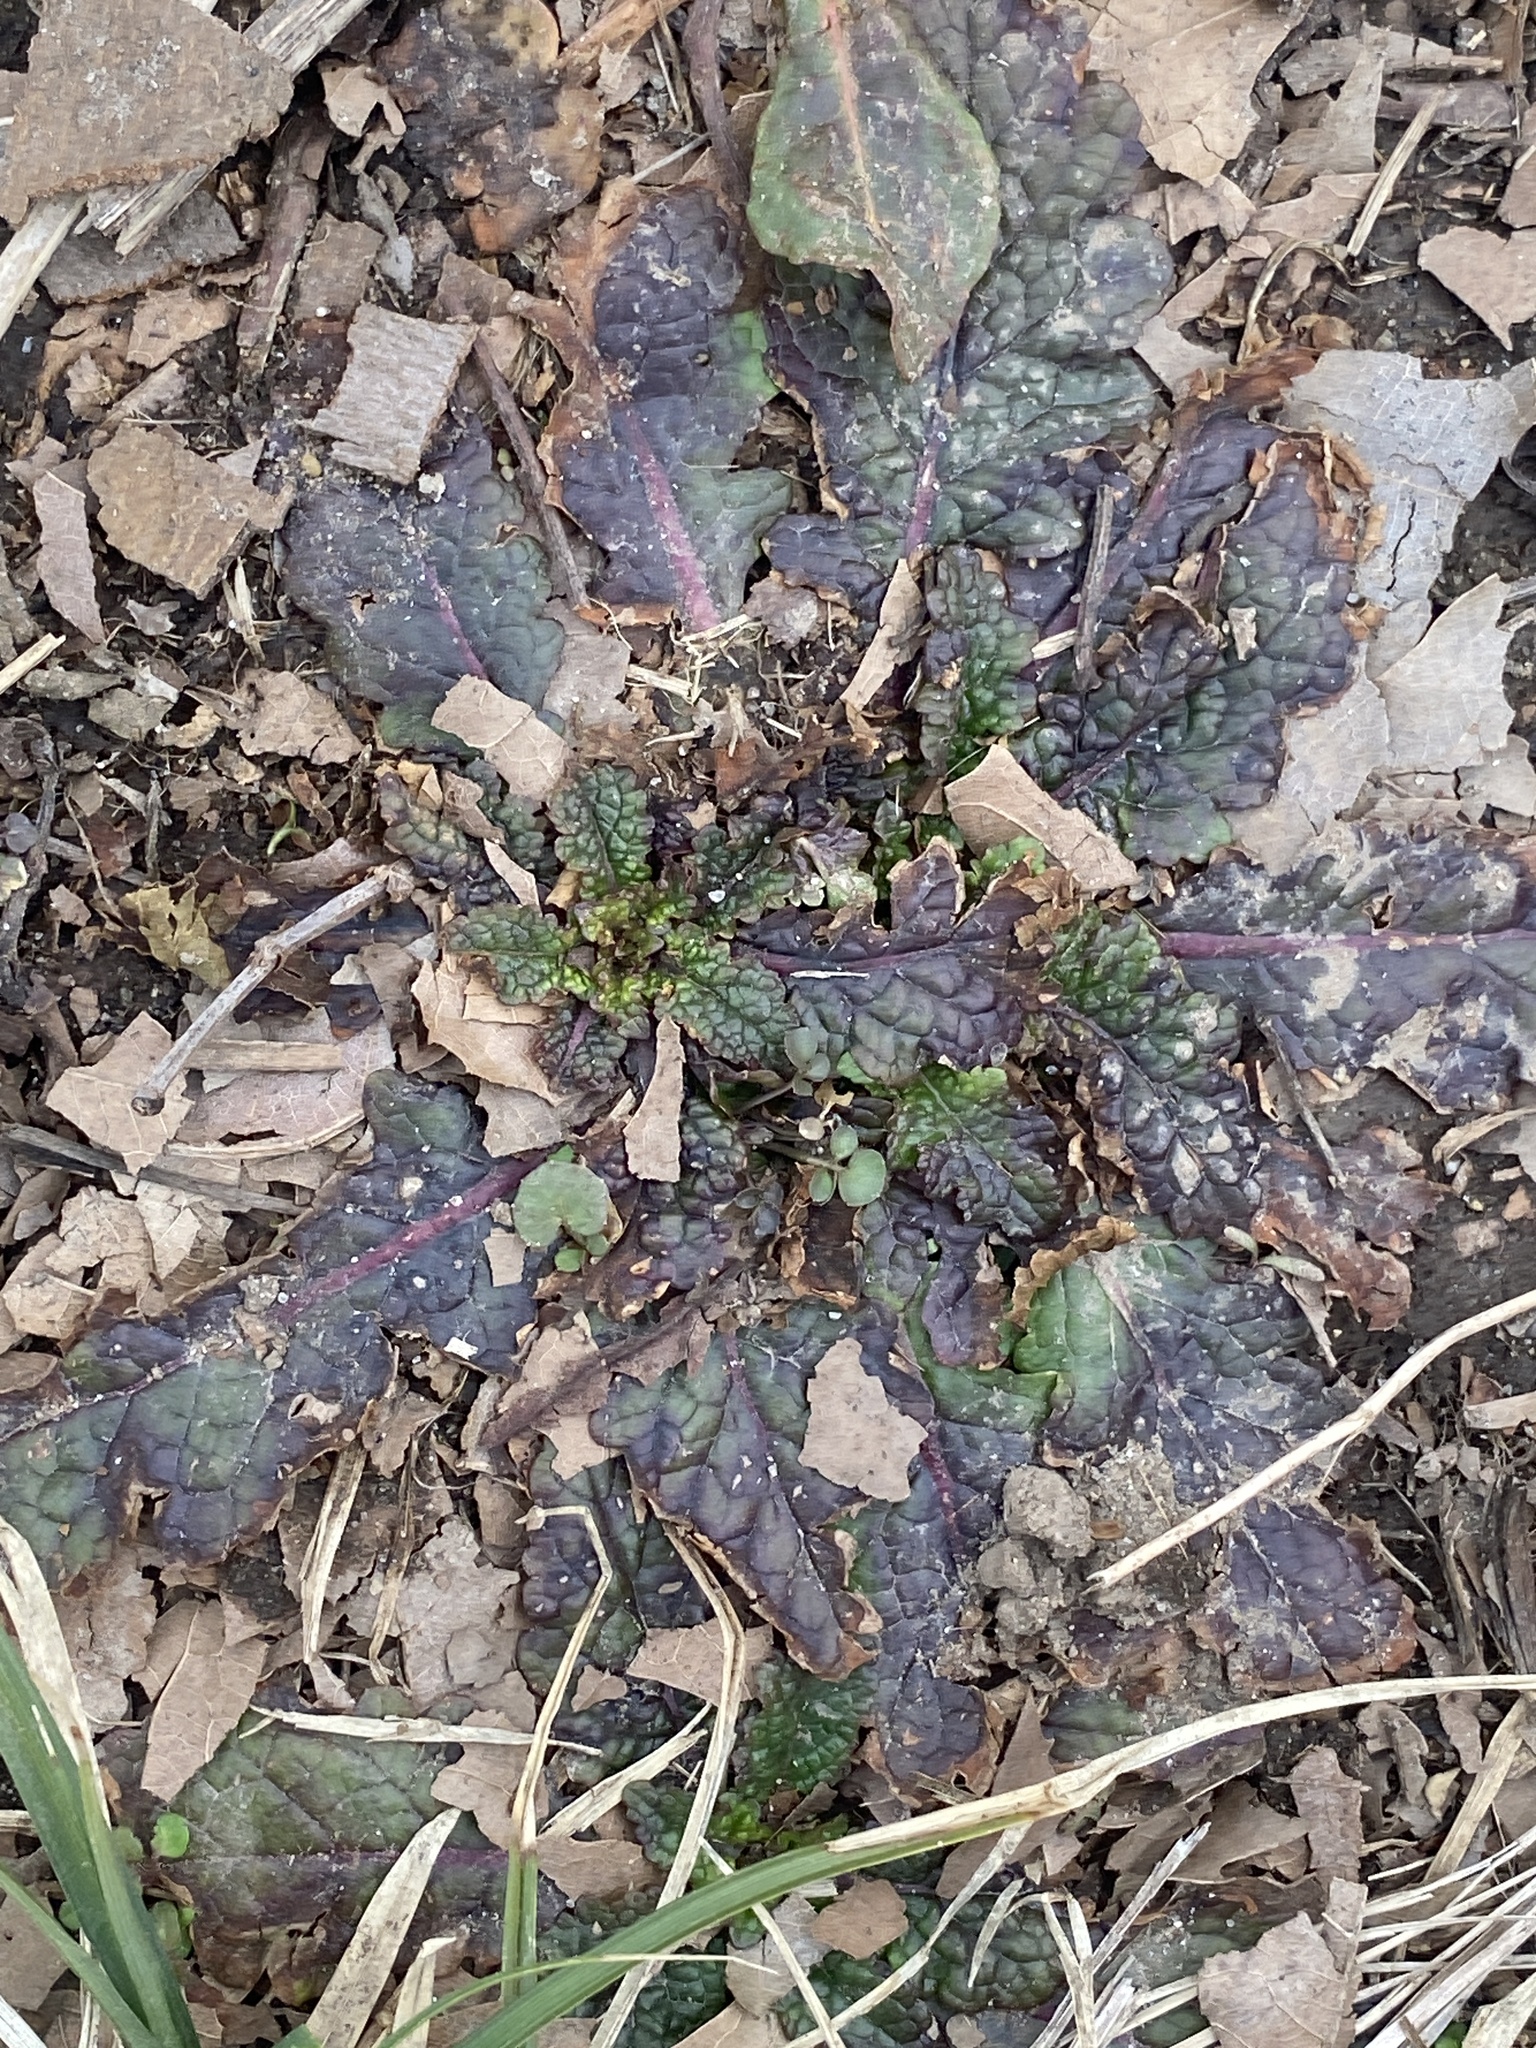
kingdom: Plantae
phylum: Tracheophyta
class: Magnoliopsida
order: Lamiales
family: Scrophulariaceae
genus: Verbascum
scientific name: Verbascum blattaria
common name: Moth mullein
